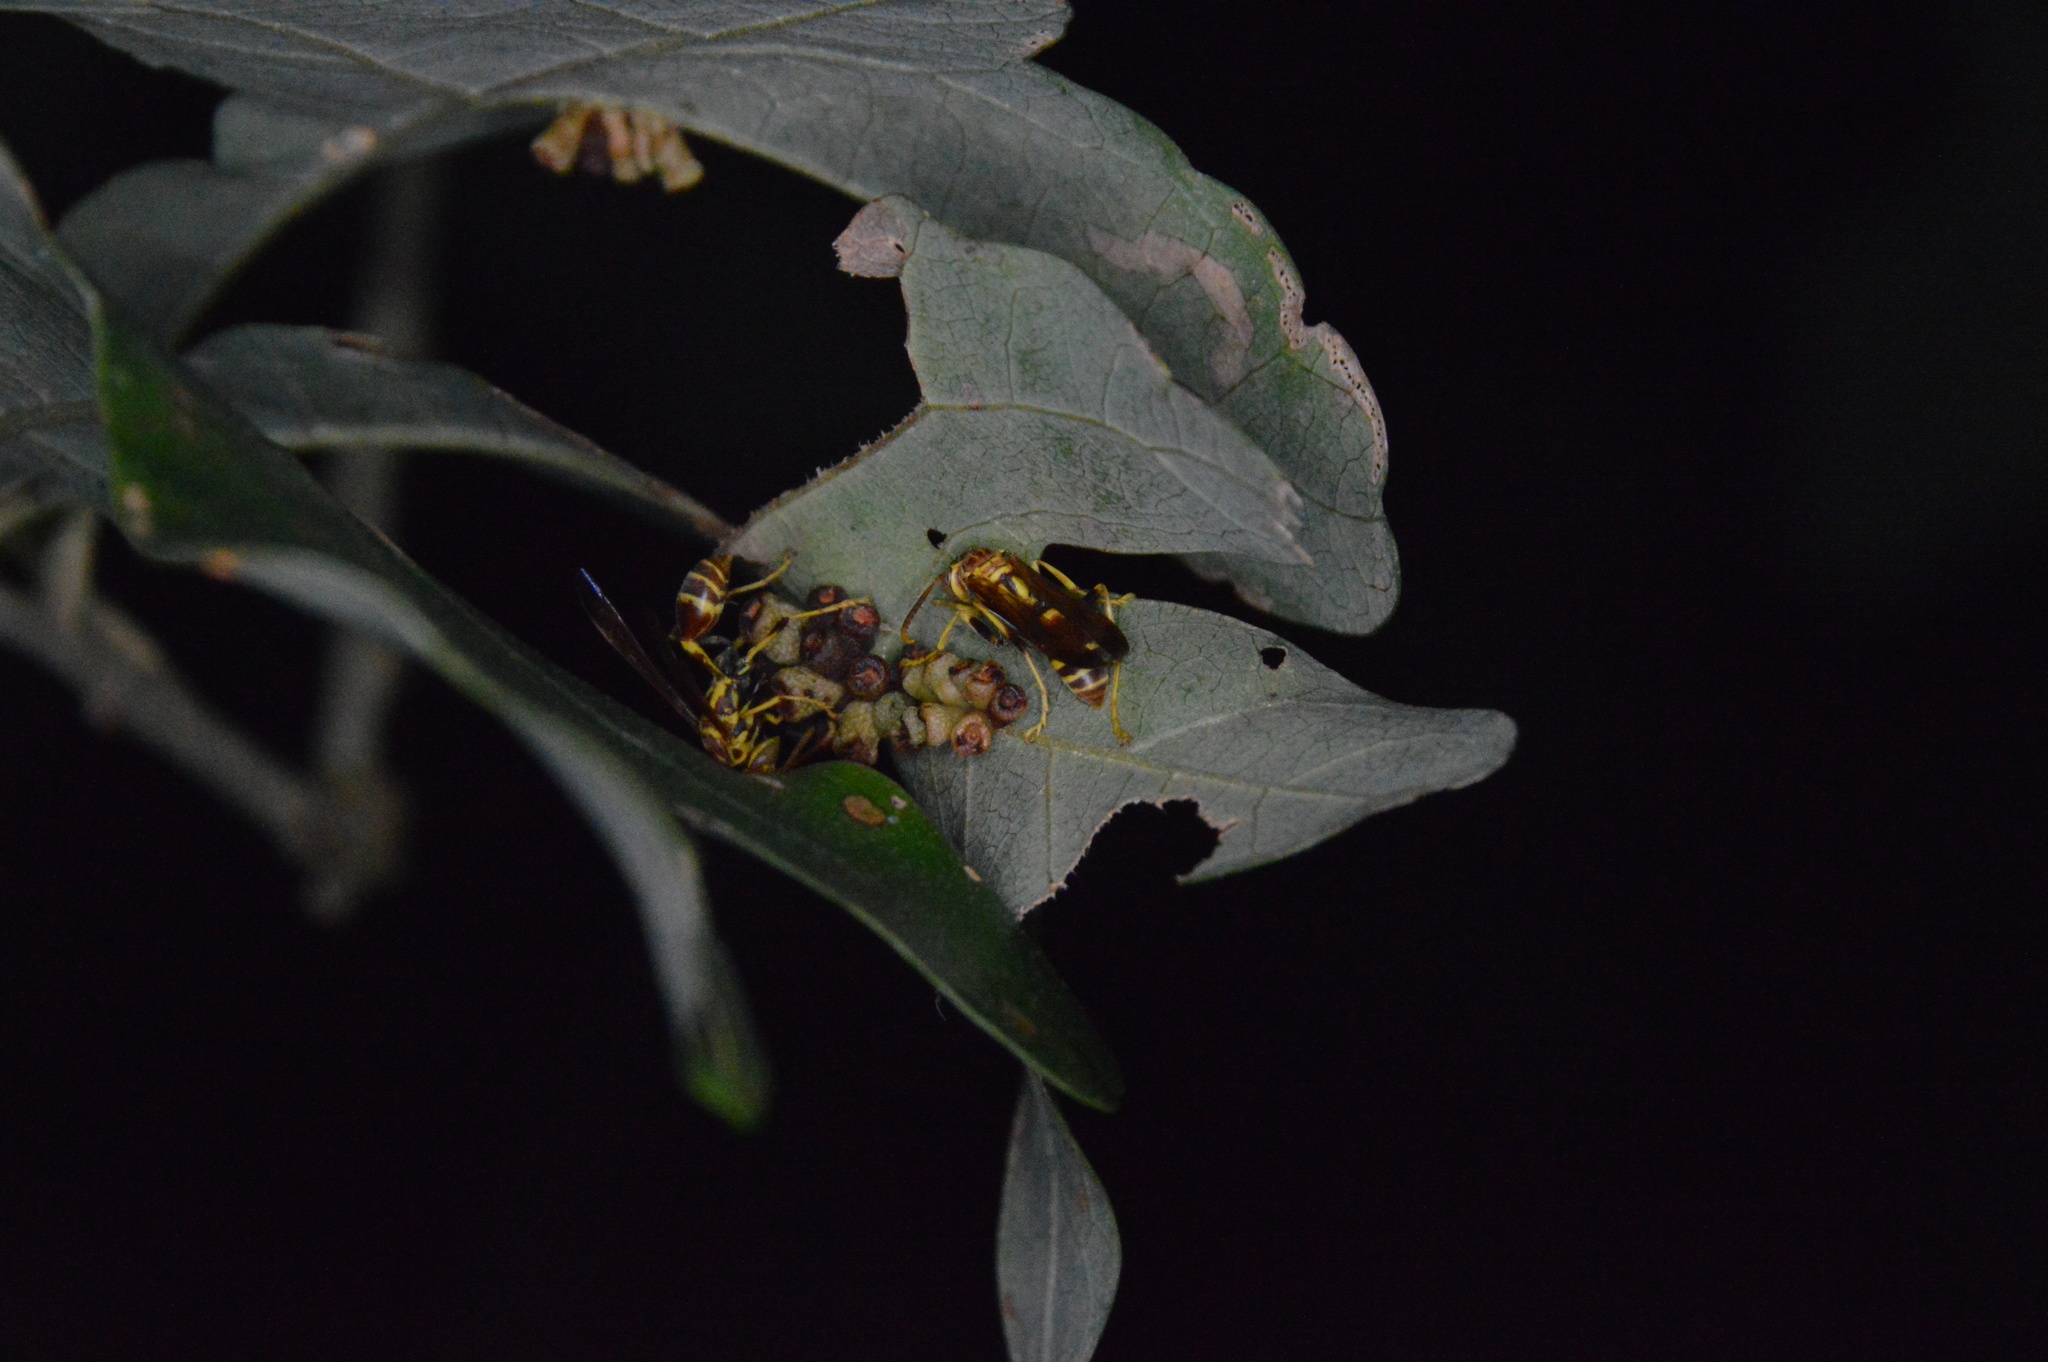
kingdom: Animalia
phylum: Arthropoda
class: Insecta
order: Hymenoptera
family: Vespidae
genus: Mischocyttarus
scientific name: Mischocyttarus mexicanus
